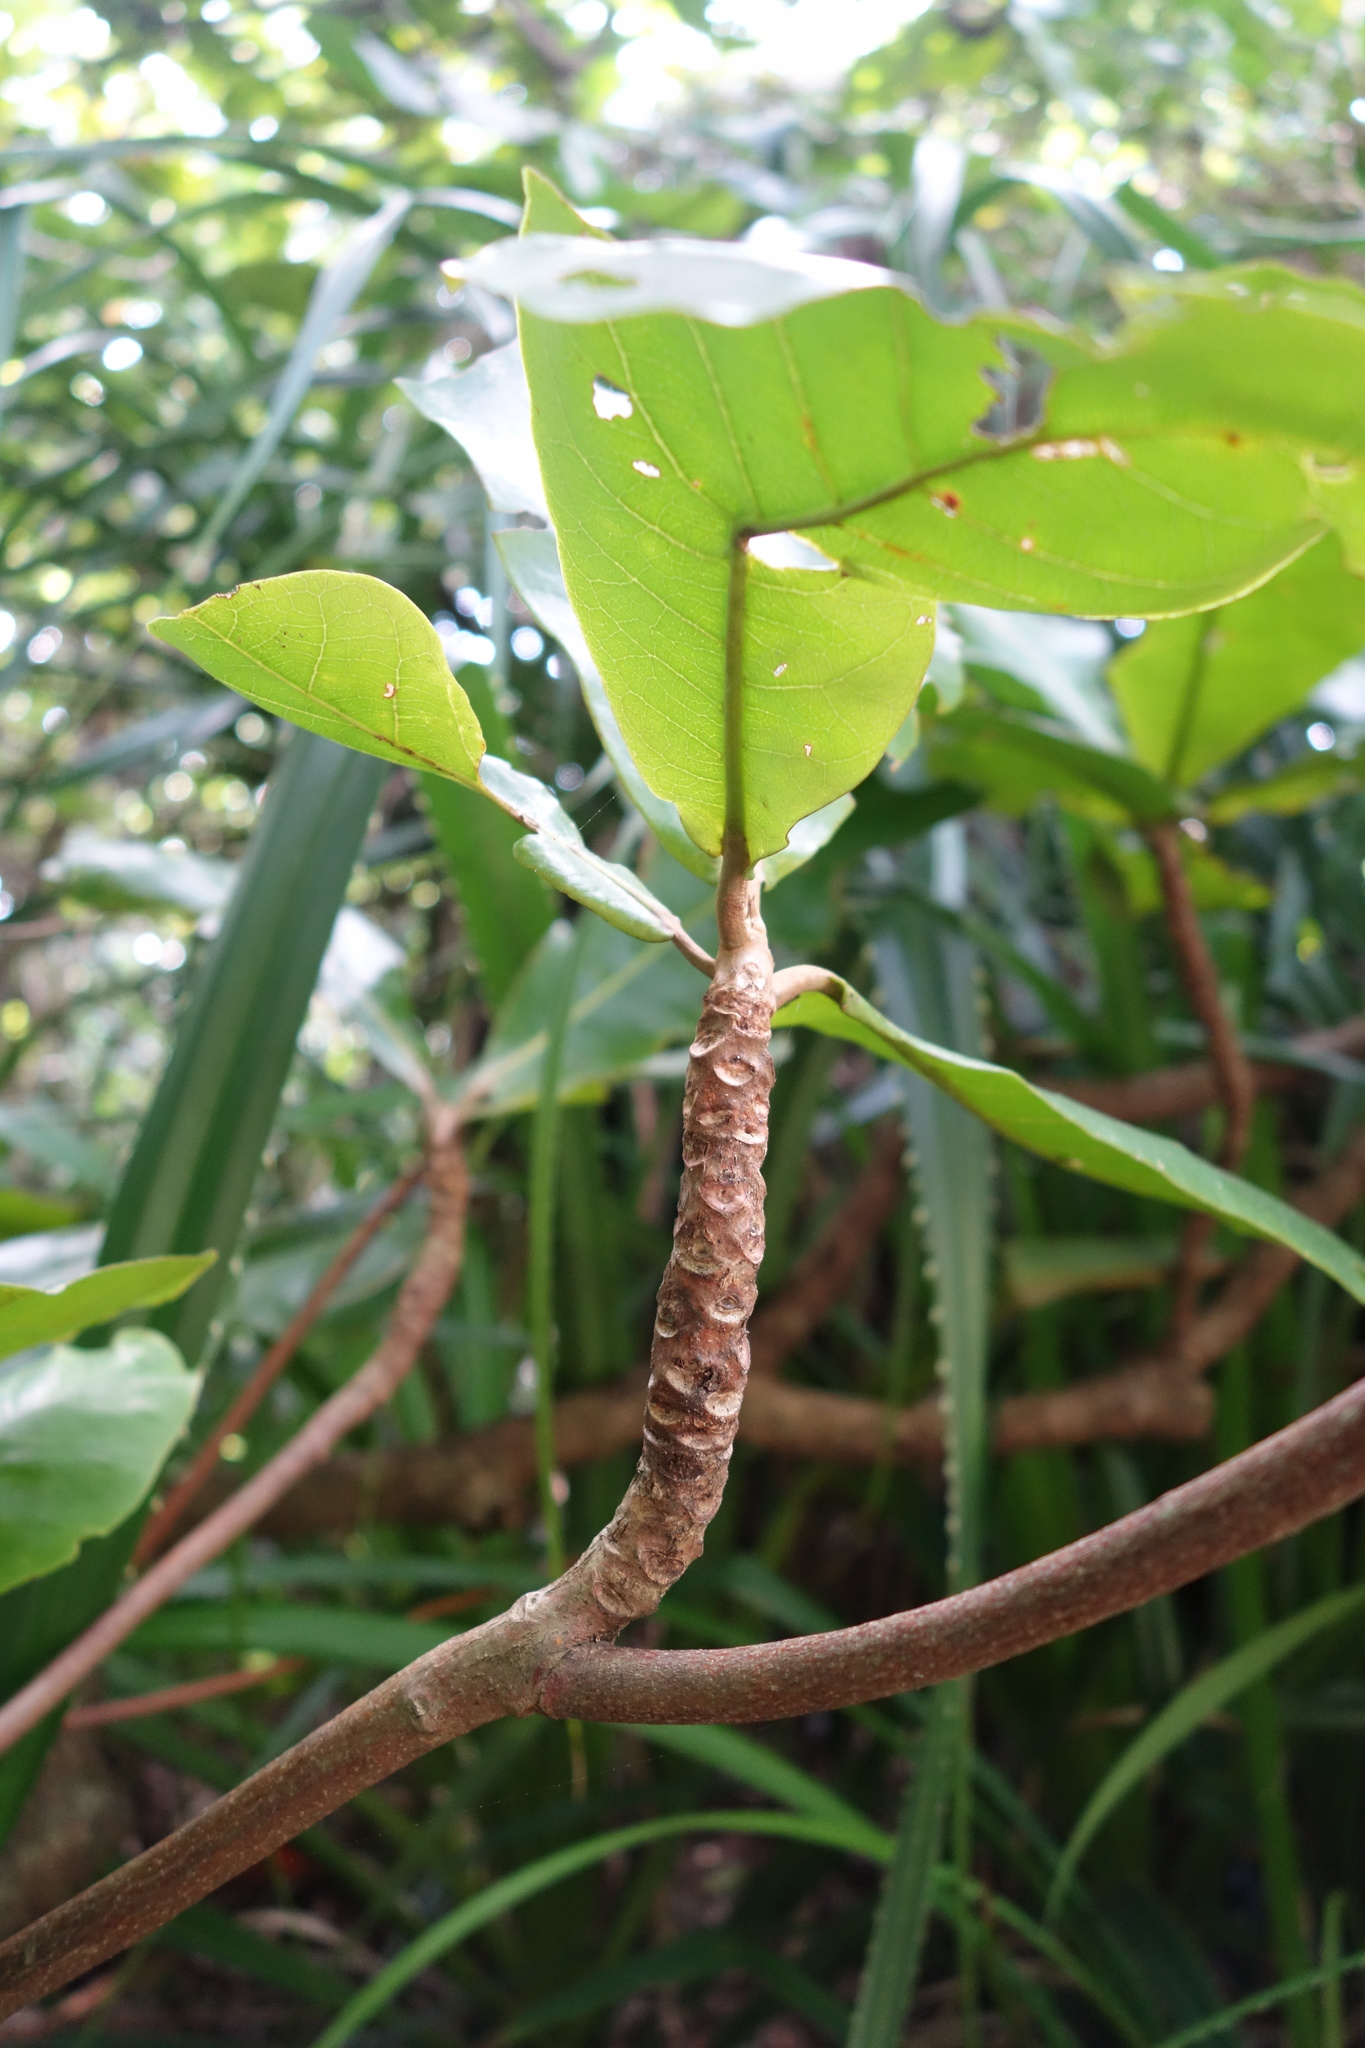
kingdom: Plantae
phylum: Tracheophyta
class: Magnoliopsida
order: Myrtales
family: Combretaceae
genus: Terminalia
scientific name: Terminalia catappa
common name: Tropical almond
